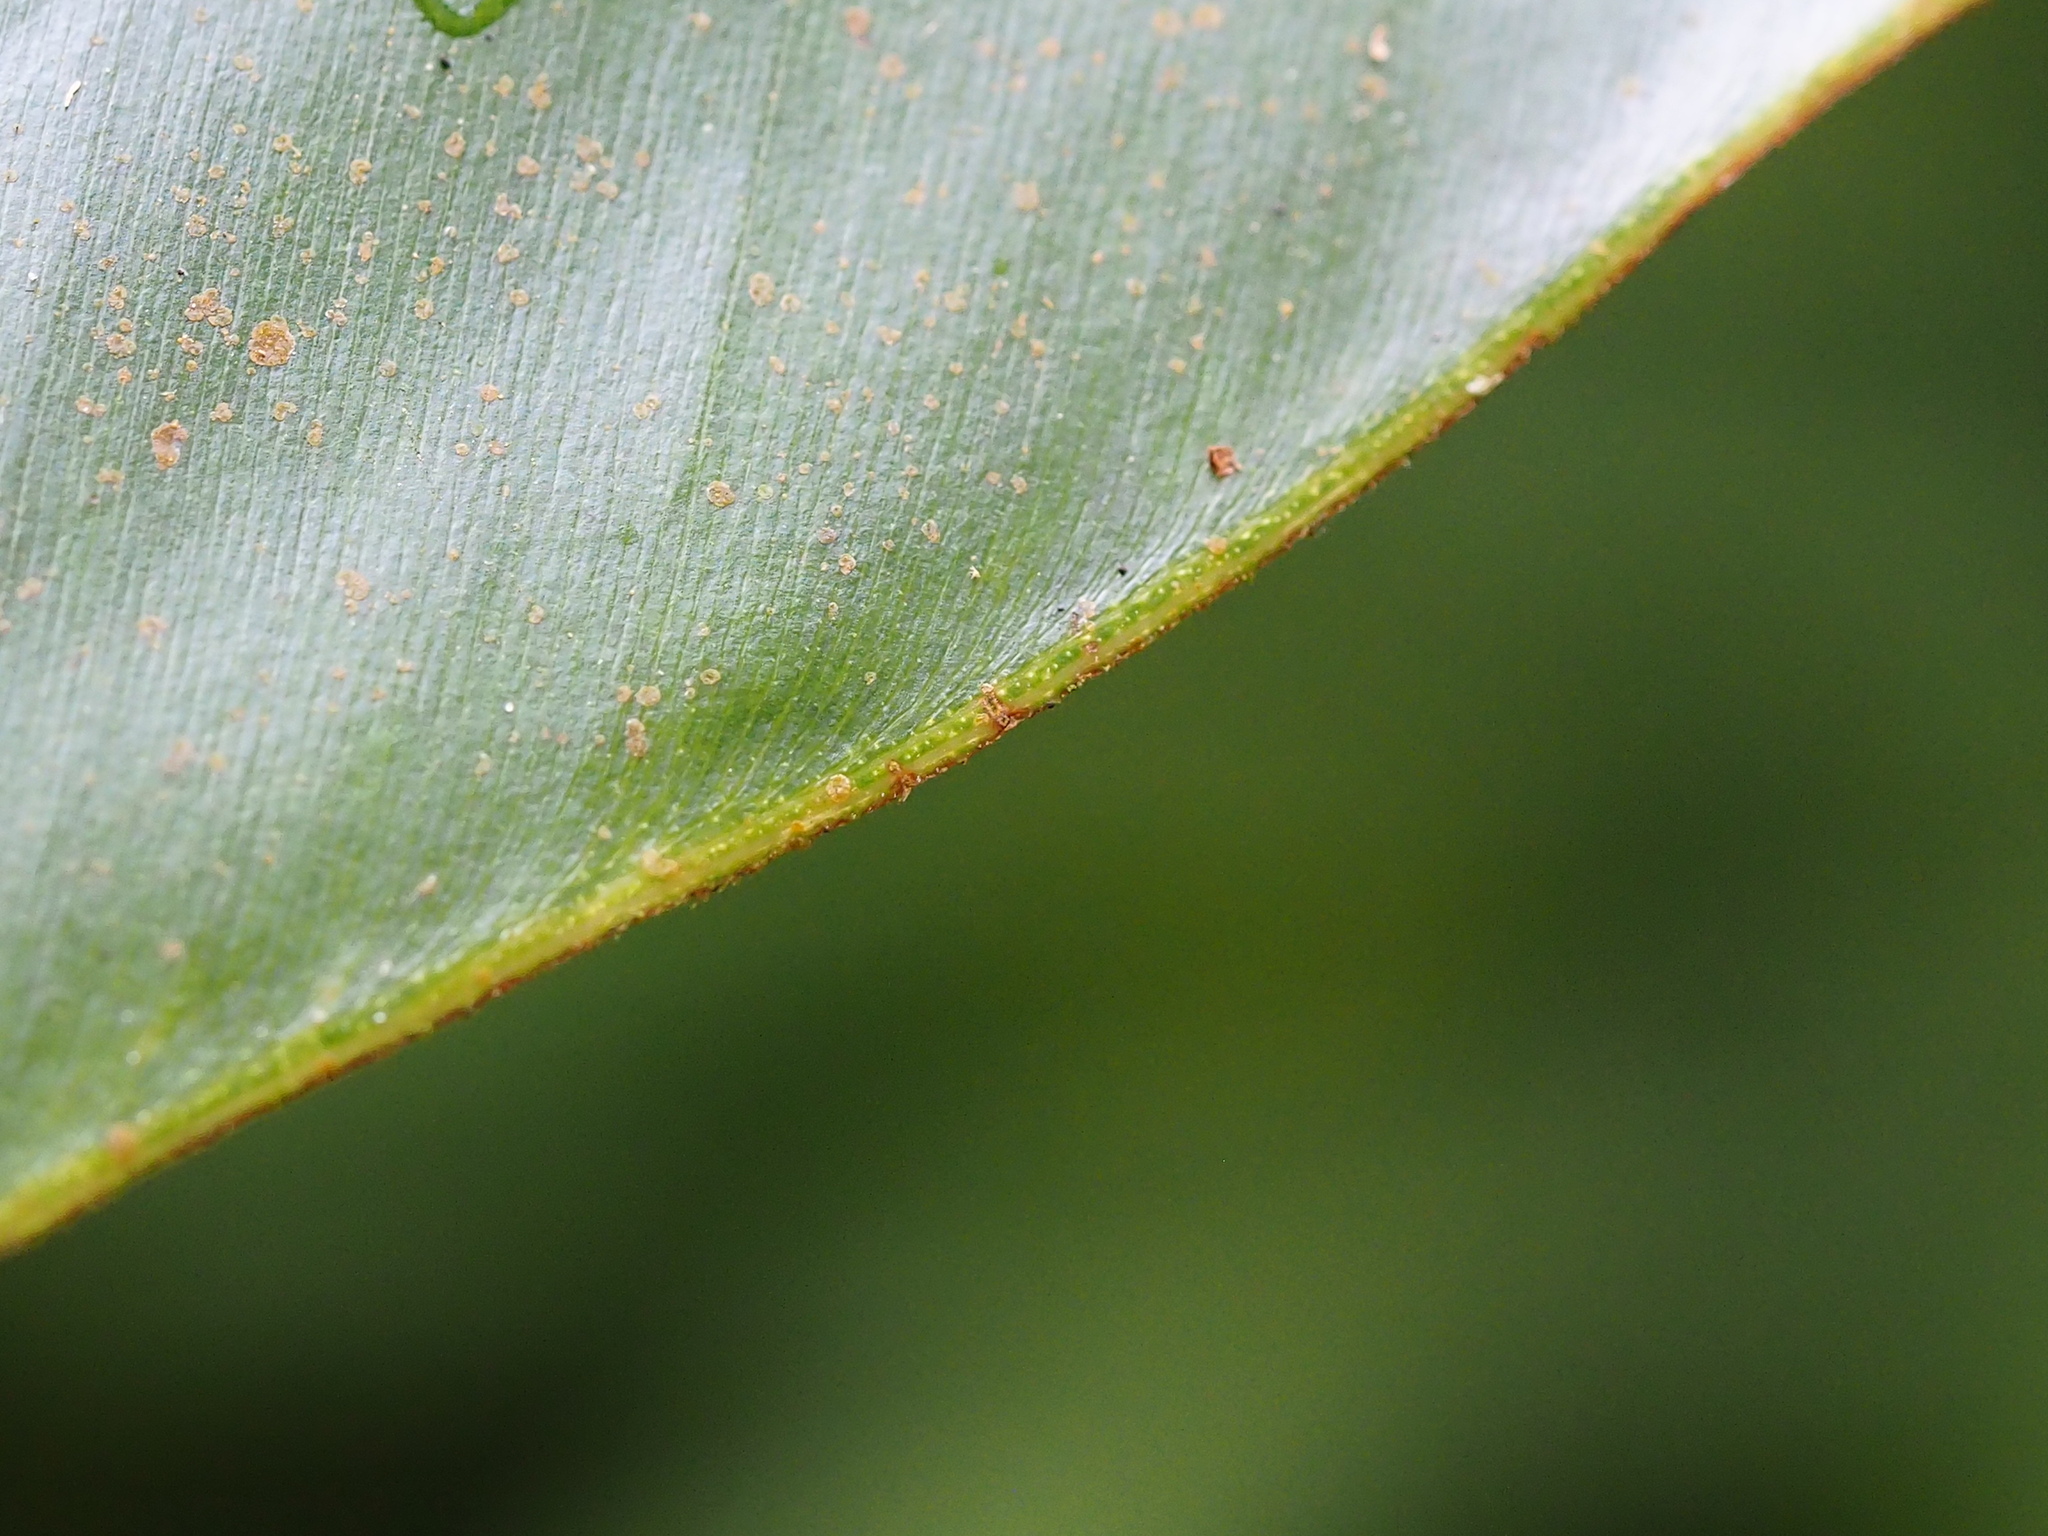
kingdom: Plantae
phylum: Tracheophyta
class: Liliopsida
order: Zingiberales
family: Zingiberaceae
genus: Alpinia
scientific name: Alpinia uraiensis
